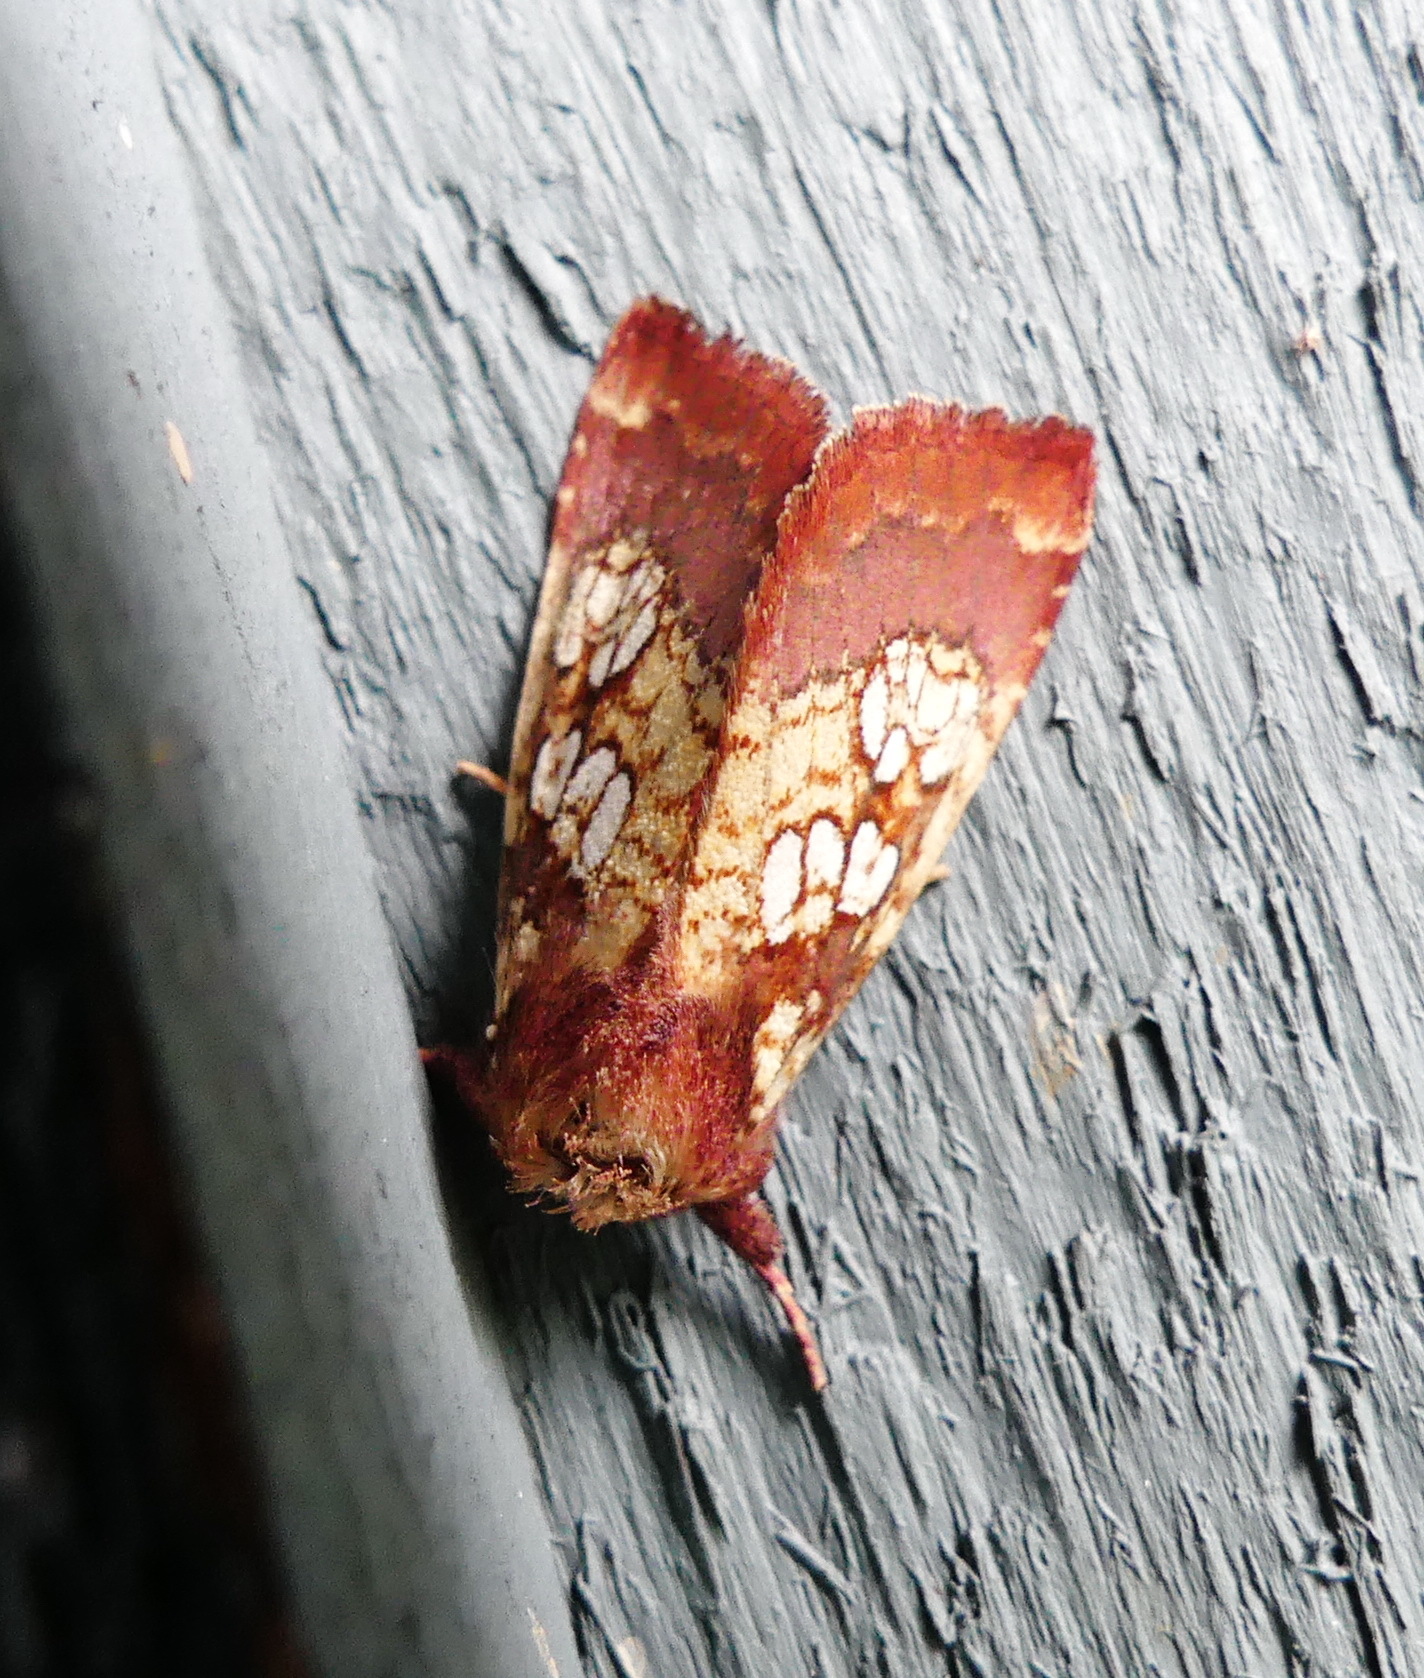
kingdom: Animalia
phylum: Arthropoda
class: Insecta
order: Lepidoptera
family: Noctuidae
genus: Papaipema
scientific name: Papaipema appassionata
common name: Pitcher plant borer moth
